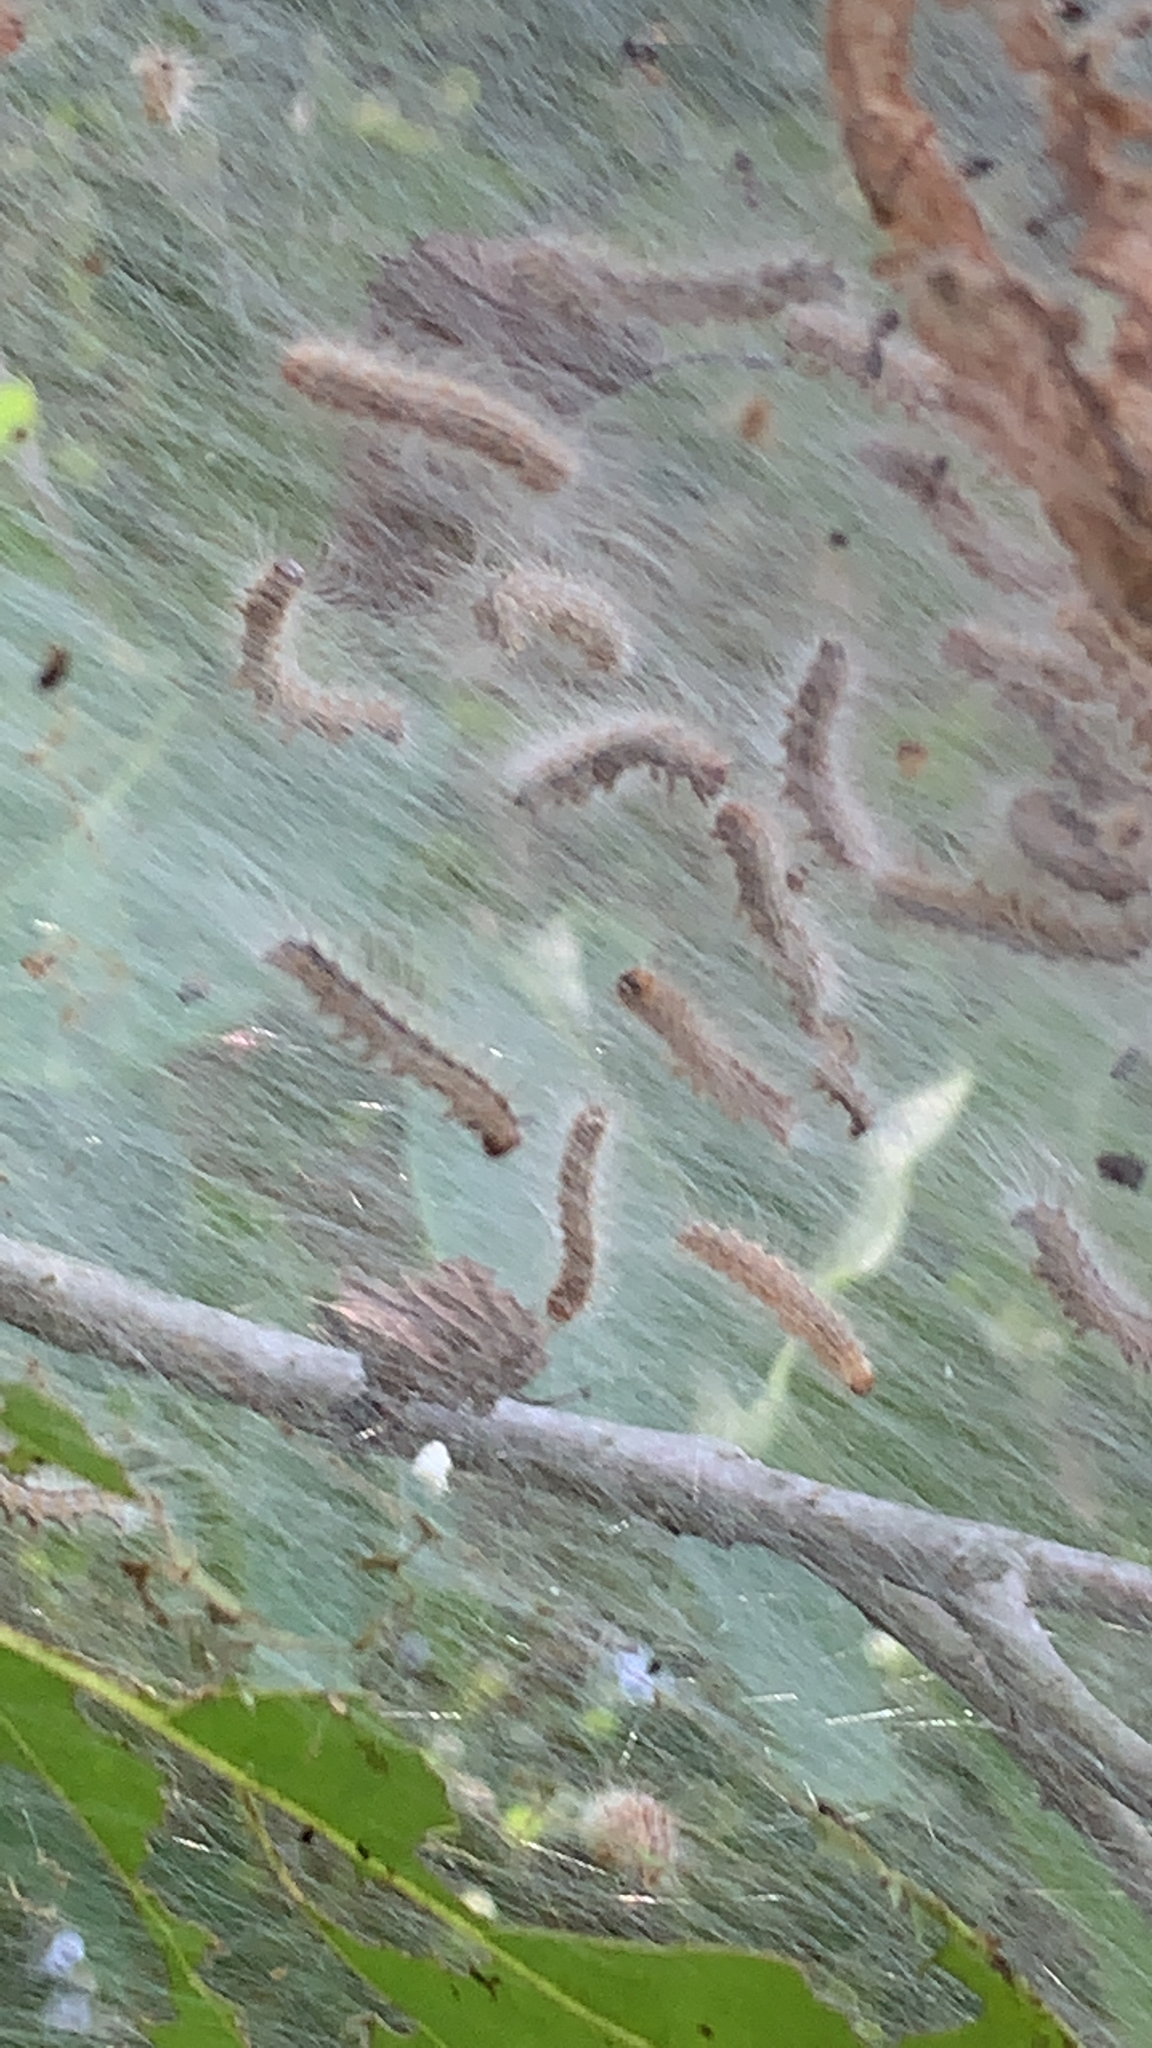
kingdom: Animalia
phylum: Arthropoda
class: Insecta
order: Lepidoptera
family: Erebidae
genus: Hyphantria
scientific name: Hyphantria cunea
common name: American white moth
